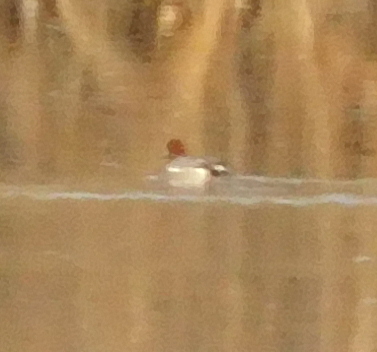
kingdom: Animalia
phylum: Chordata
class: Aves
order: Anseriformes
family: Anatidae
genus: Mareca
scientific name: Mareca penelope
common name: Eurasian wigeon
